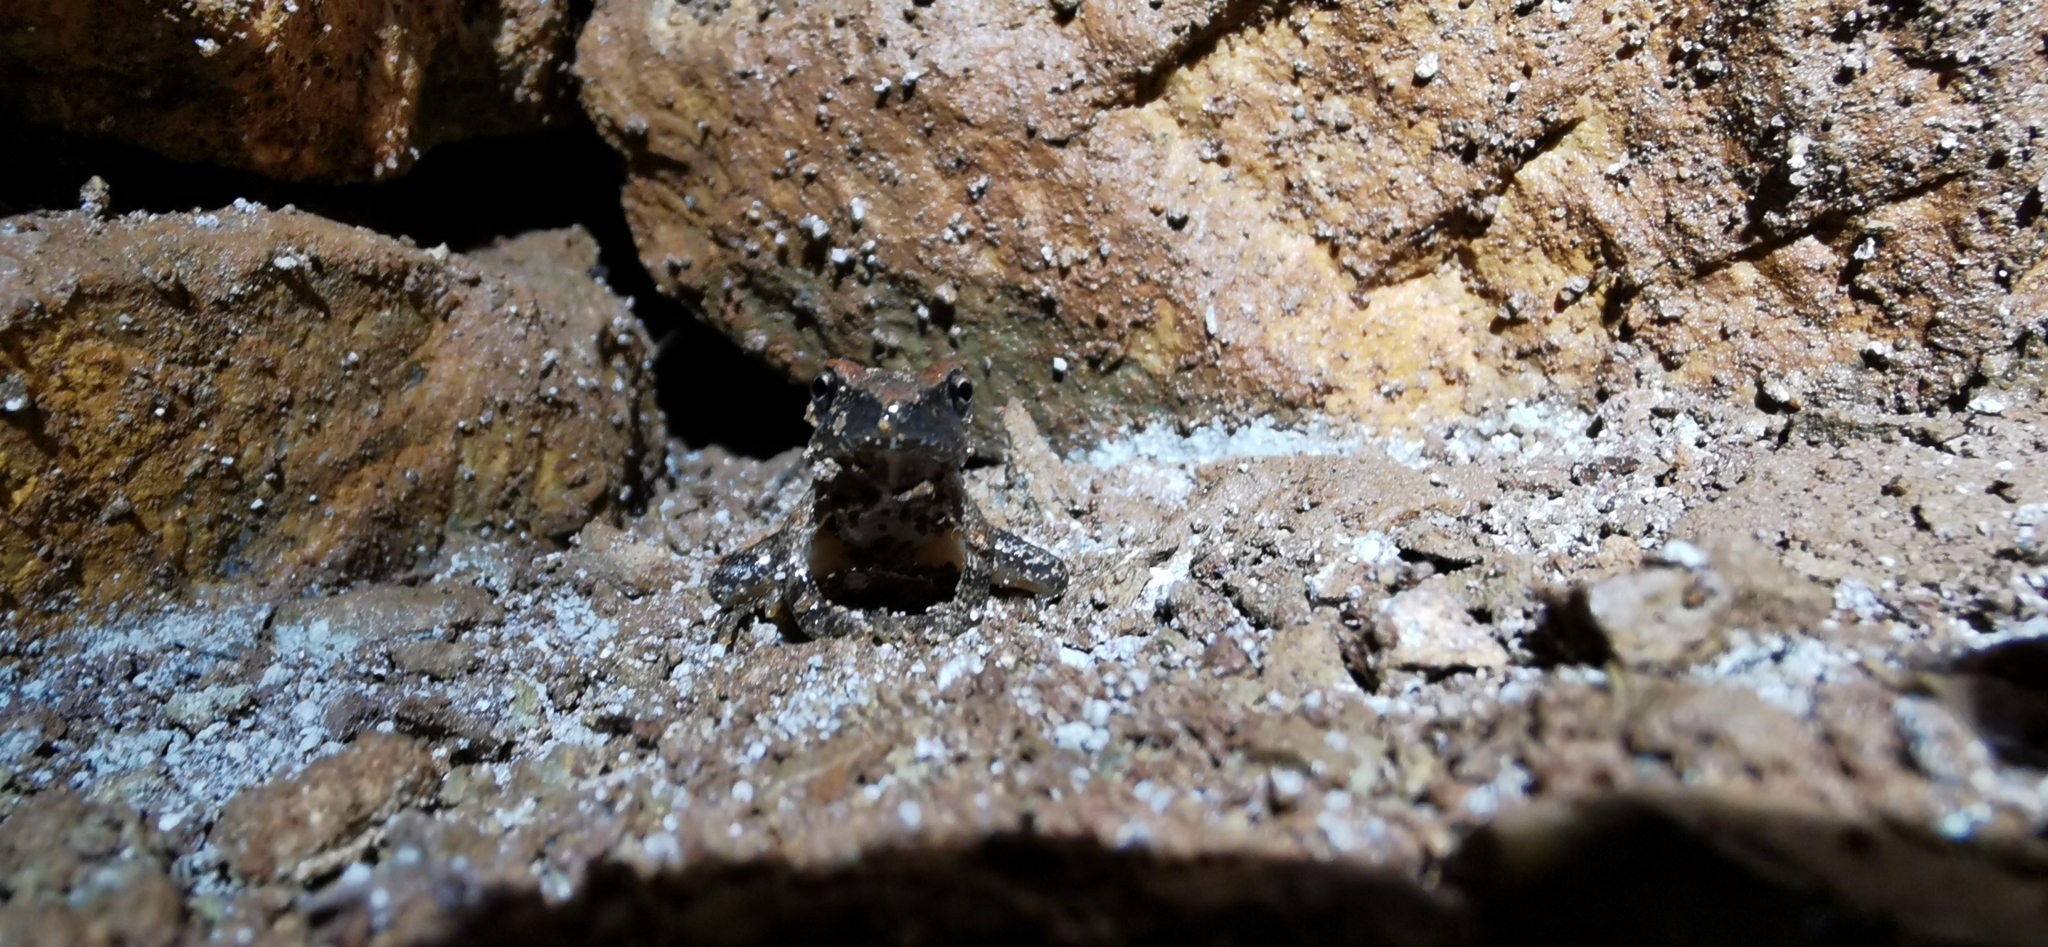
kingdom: Animalia
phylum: Chordata
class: Amphibia
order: Anura
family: Ranidae
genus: Rana
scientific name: Rana italica
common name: Italian stream frog
